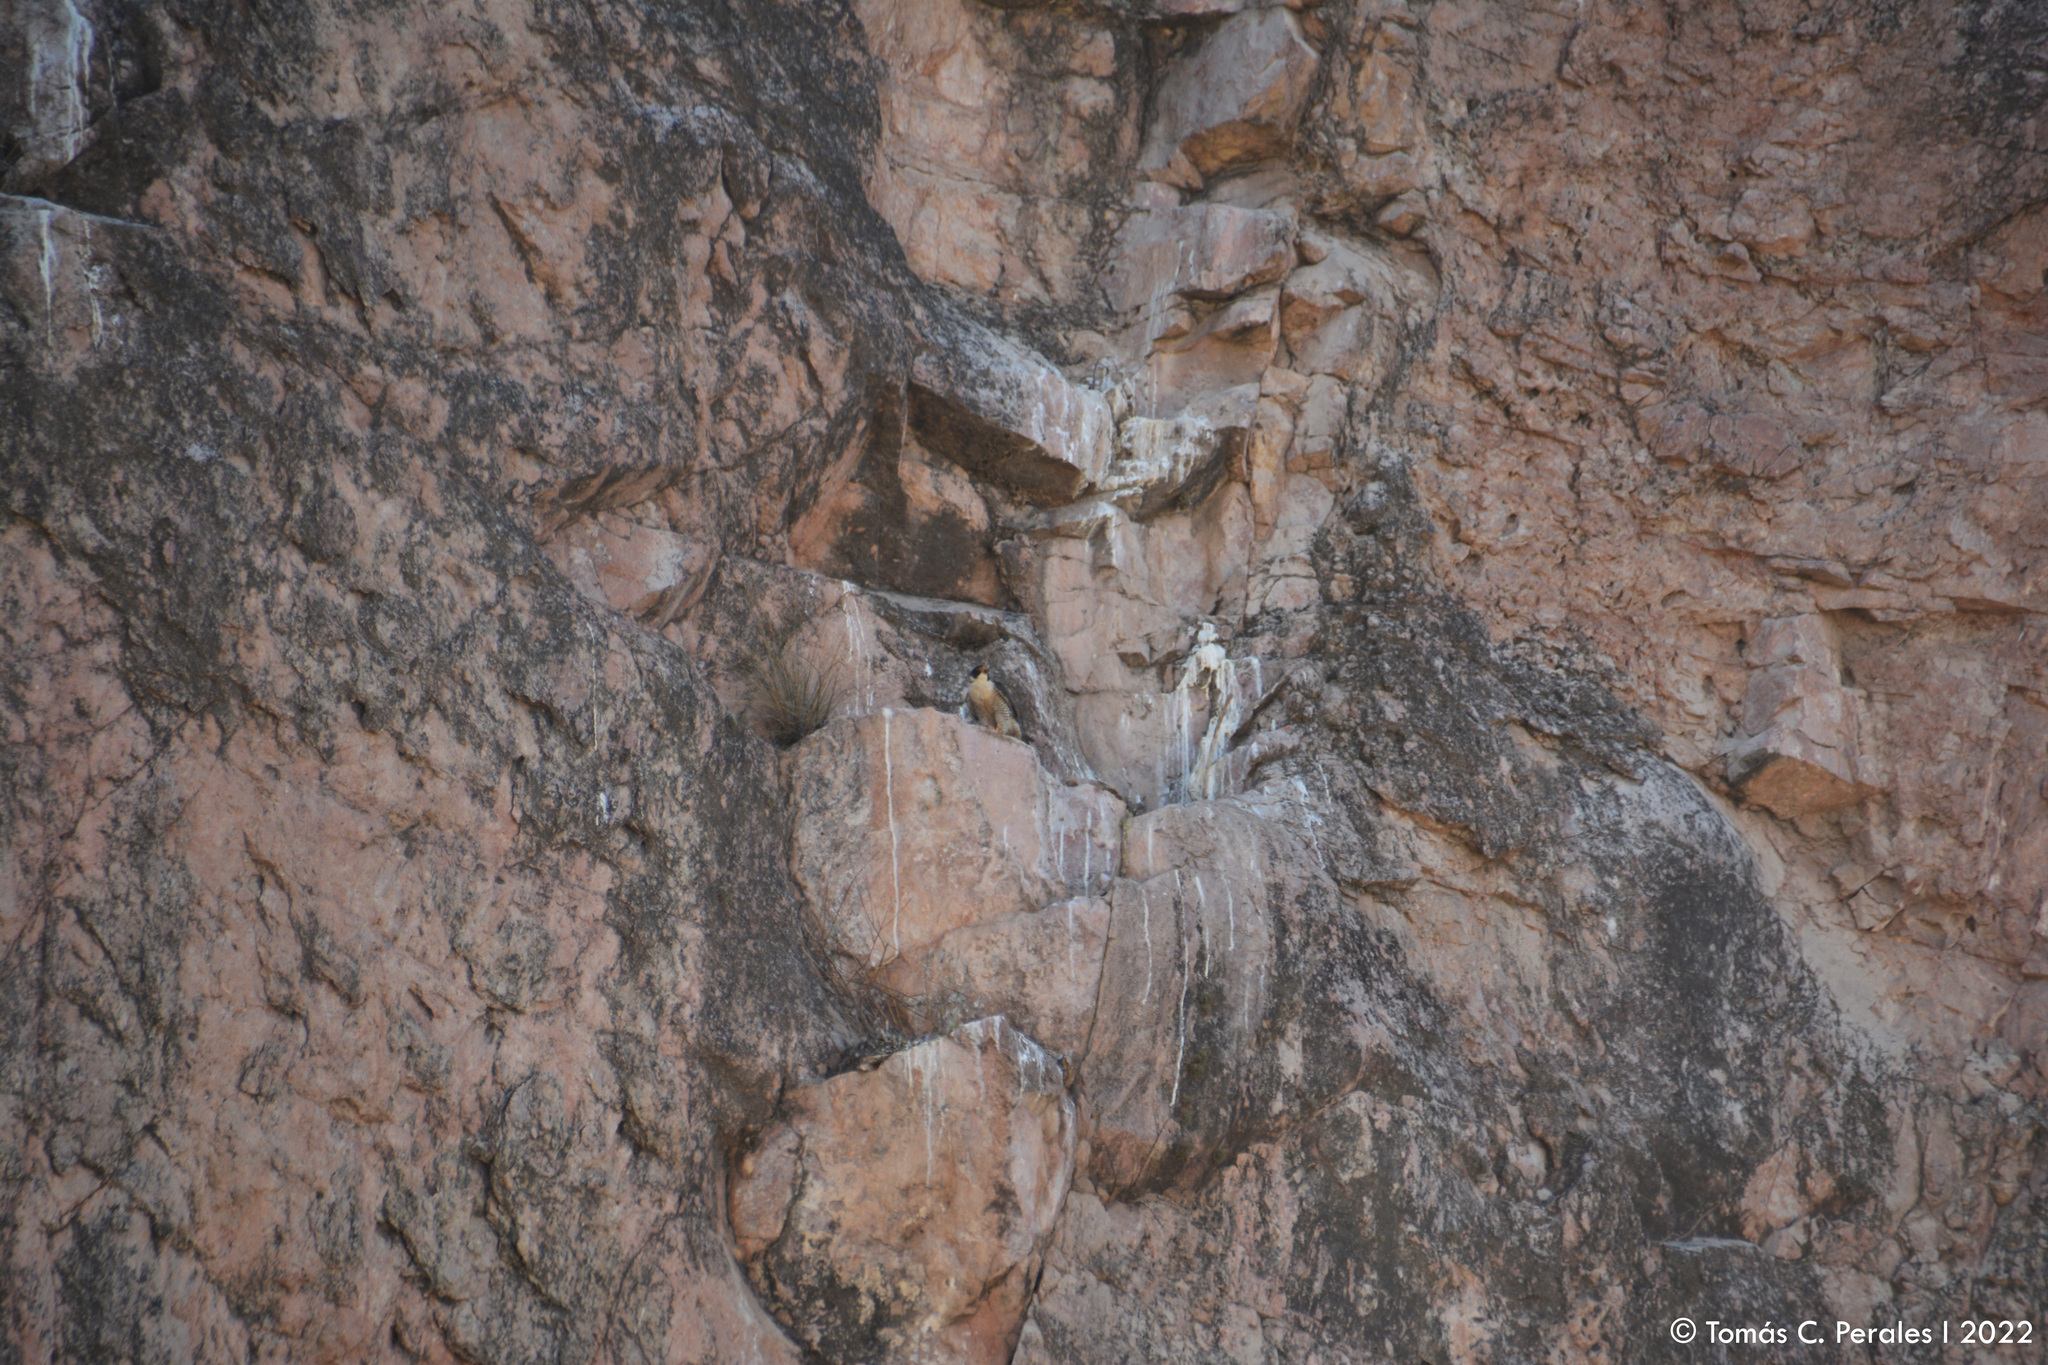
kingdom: Animalia
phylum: Chordata
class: Aves
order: Falconiformes
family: Falconidae
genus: Falco
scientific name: Falco peregrinus
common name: Peregrine falcon
